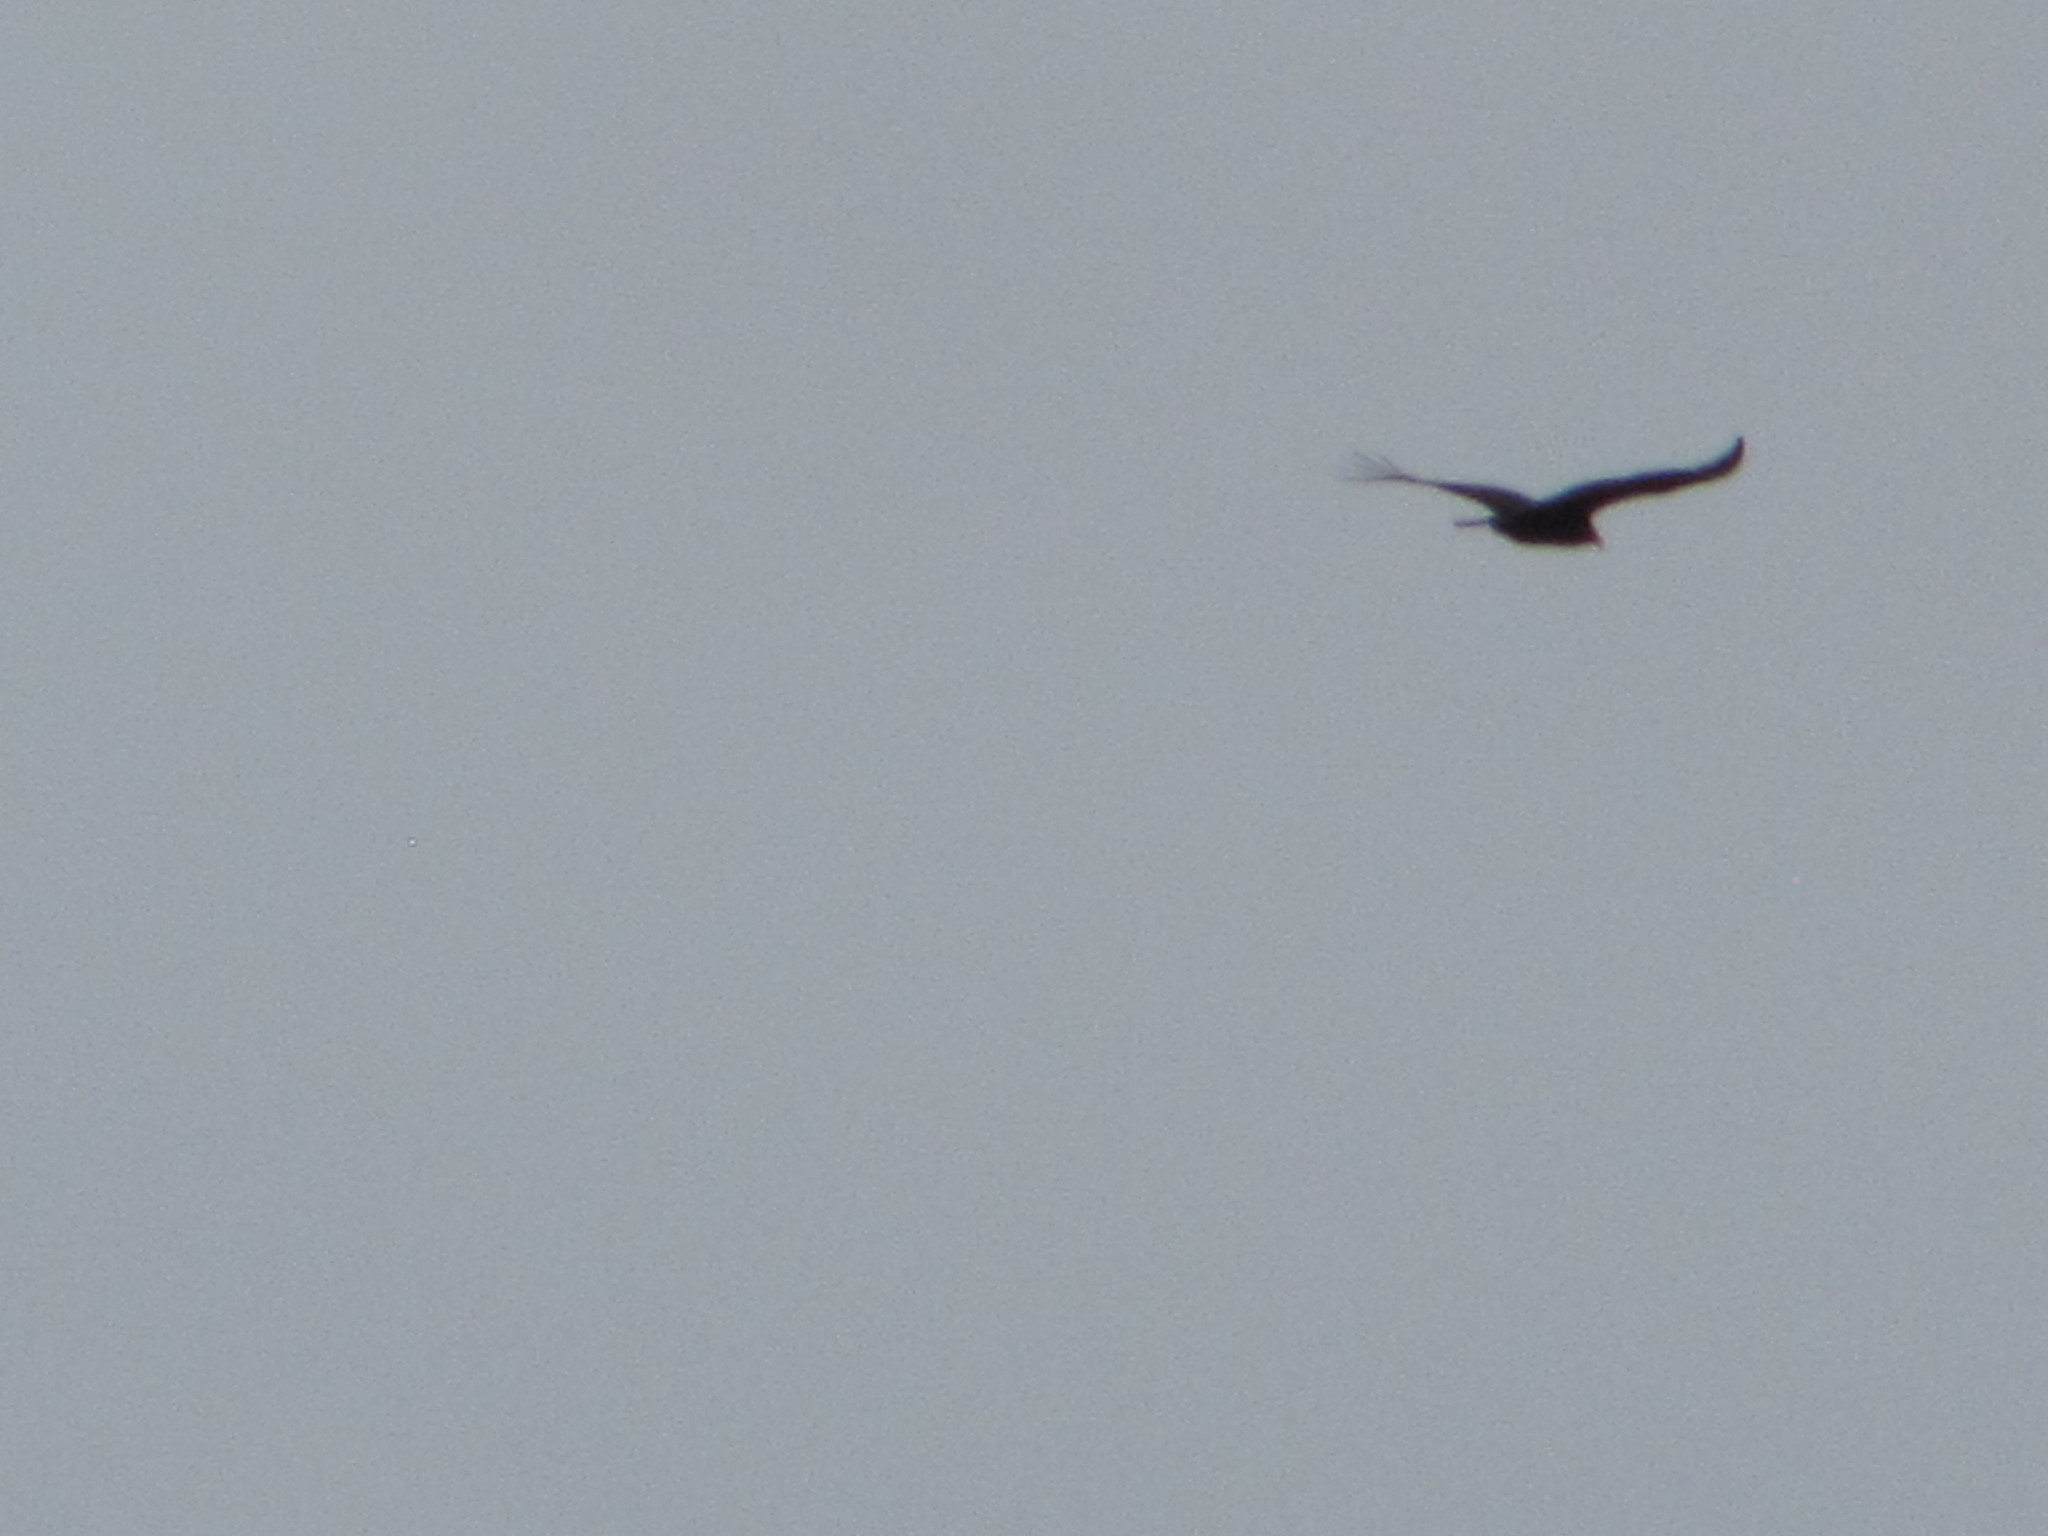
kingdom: Animalia
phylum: Chordata
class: Aves
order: Accipitriformes
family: Cathartidae
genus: Cathartes
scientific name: Cathartes aura
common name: Turkey vulture
